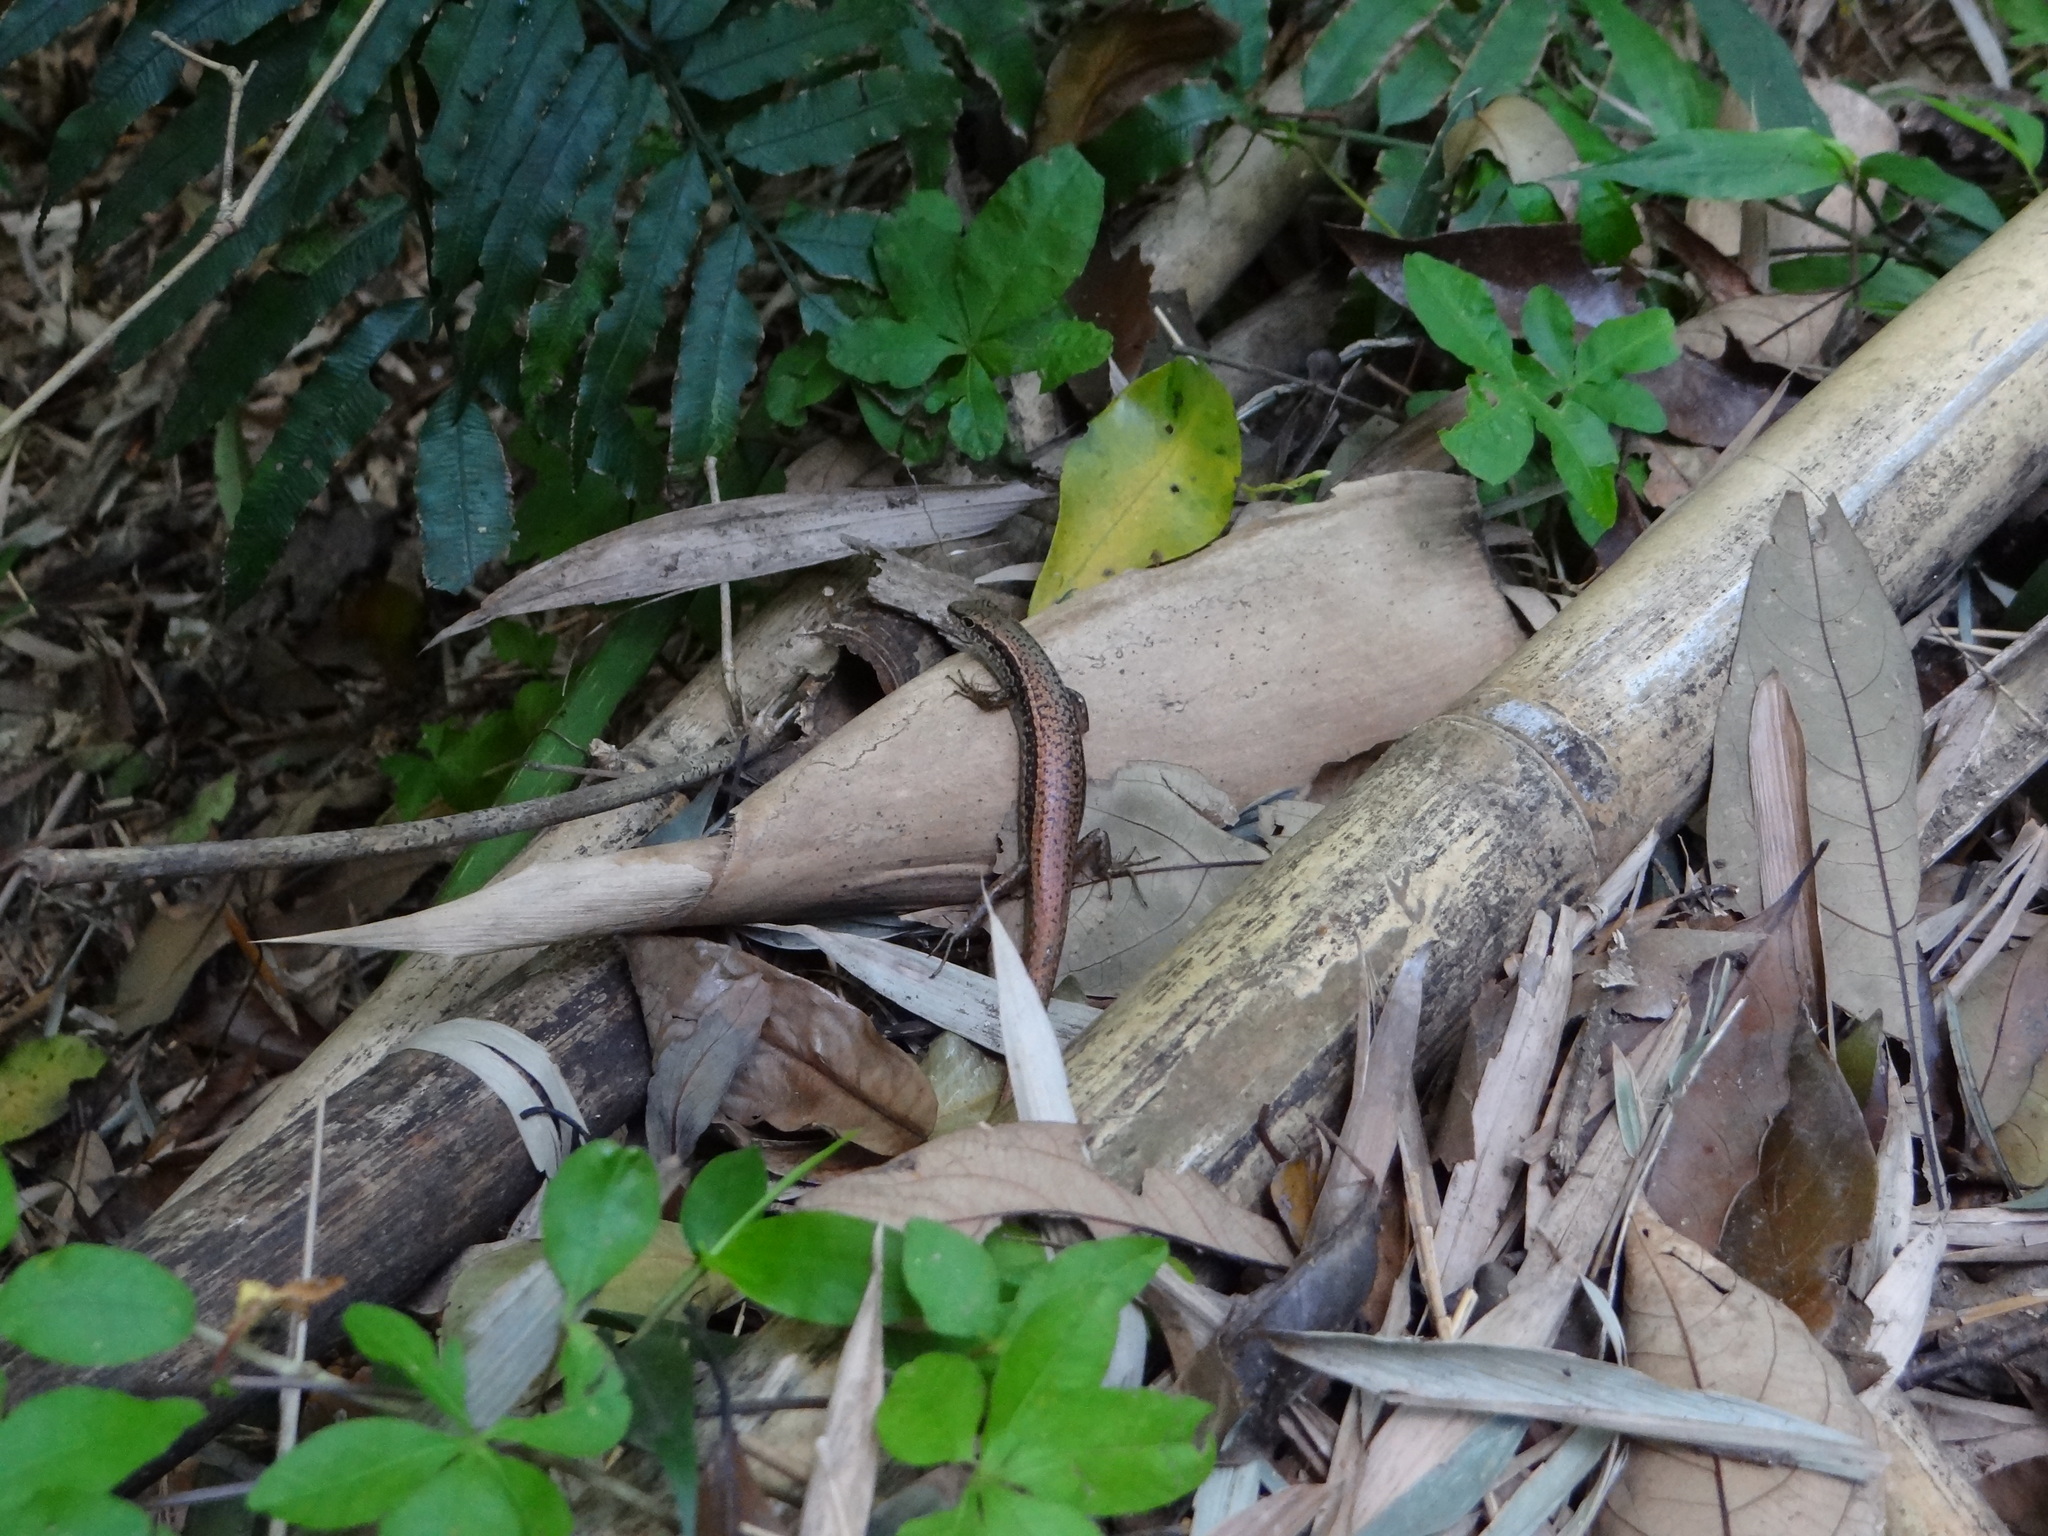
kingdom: Animalia
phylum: Chordata
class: Squamata
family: Scincidae
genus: Sphenomorphus
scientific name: Sphenomorphus indicus
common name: Himalayan forest skink
